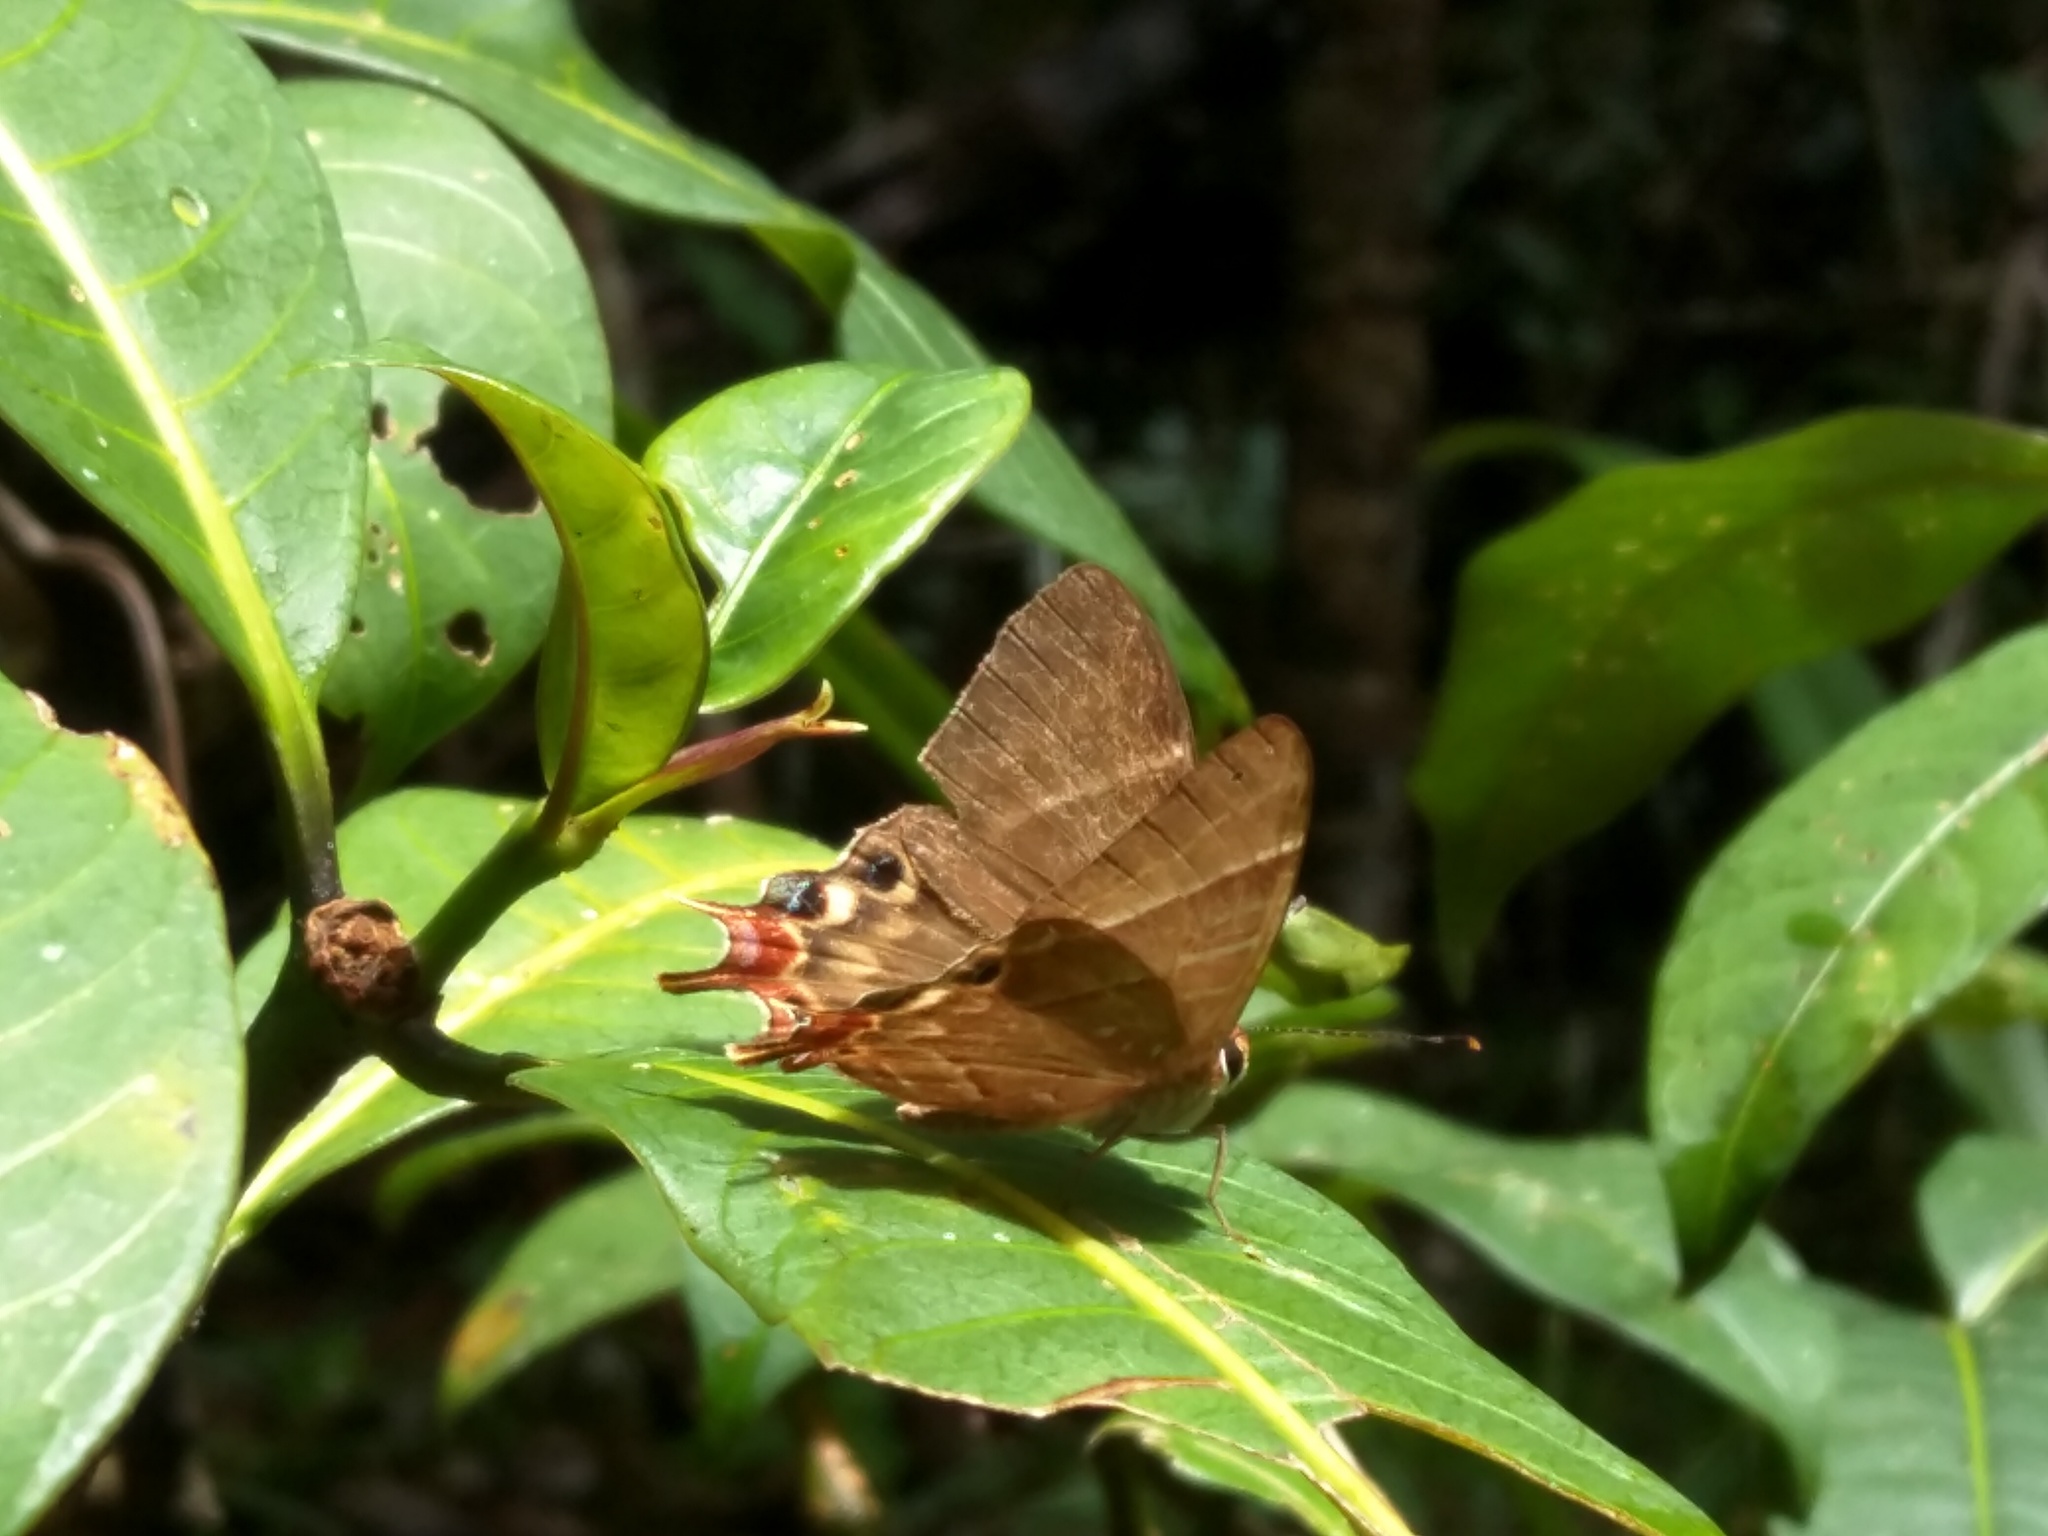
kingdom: Animalia
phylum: Arthropoda
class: Insecta
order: Lepidoptera
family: Riodinidae
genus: Saribia
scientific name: Saribia perroti
